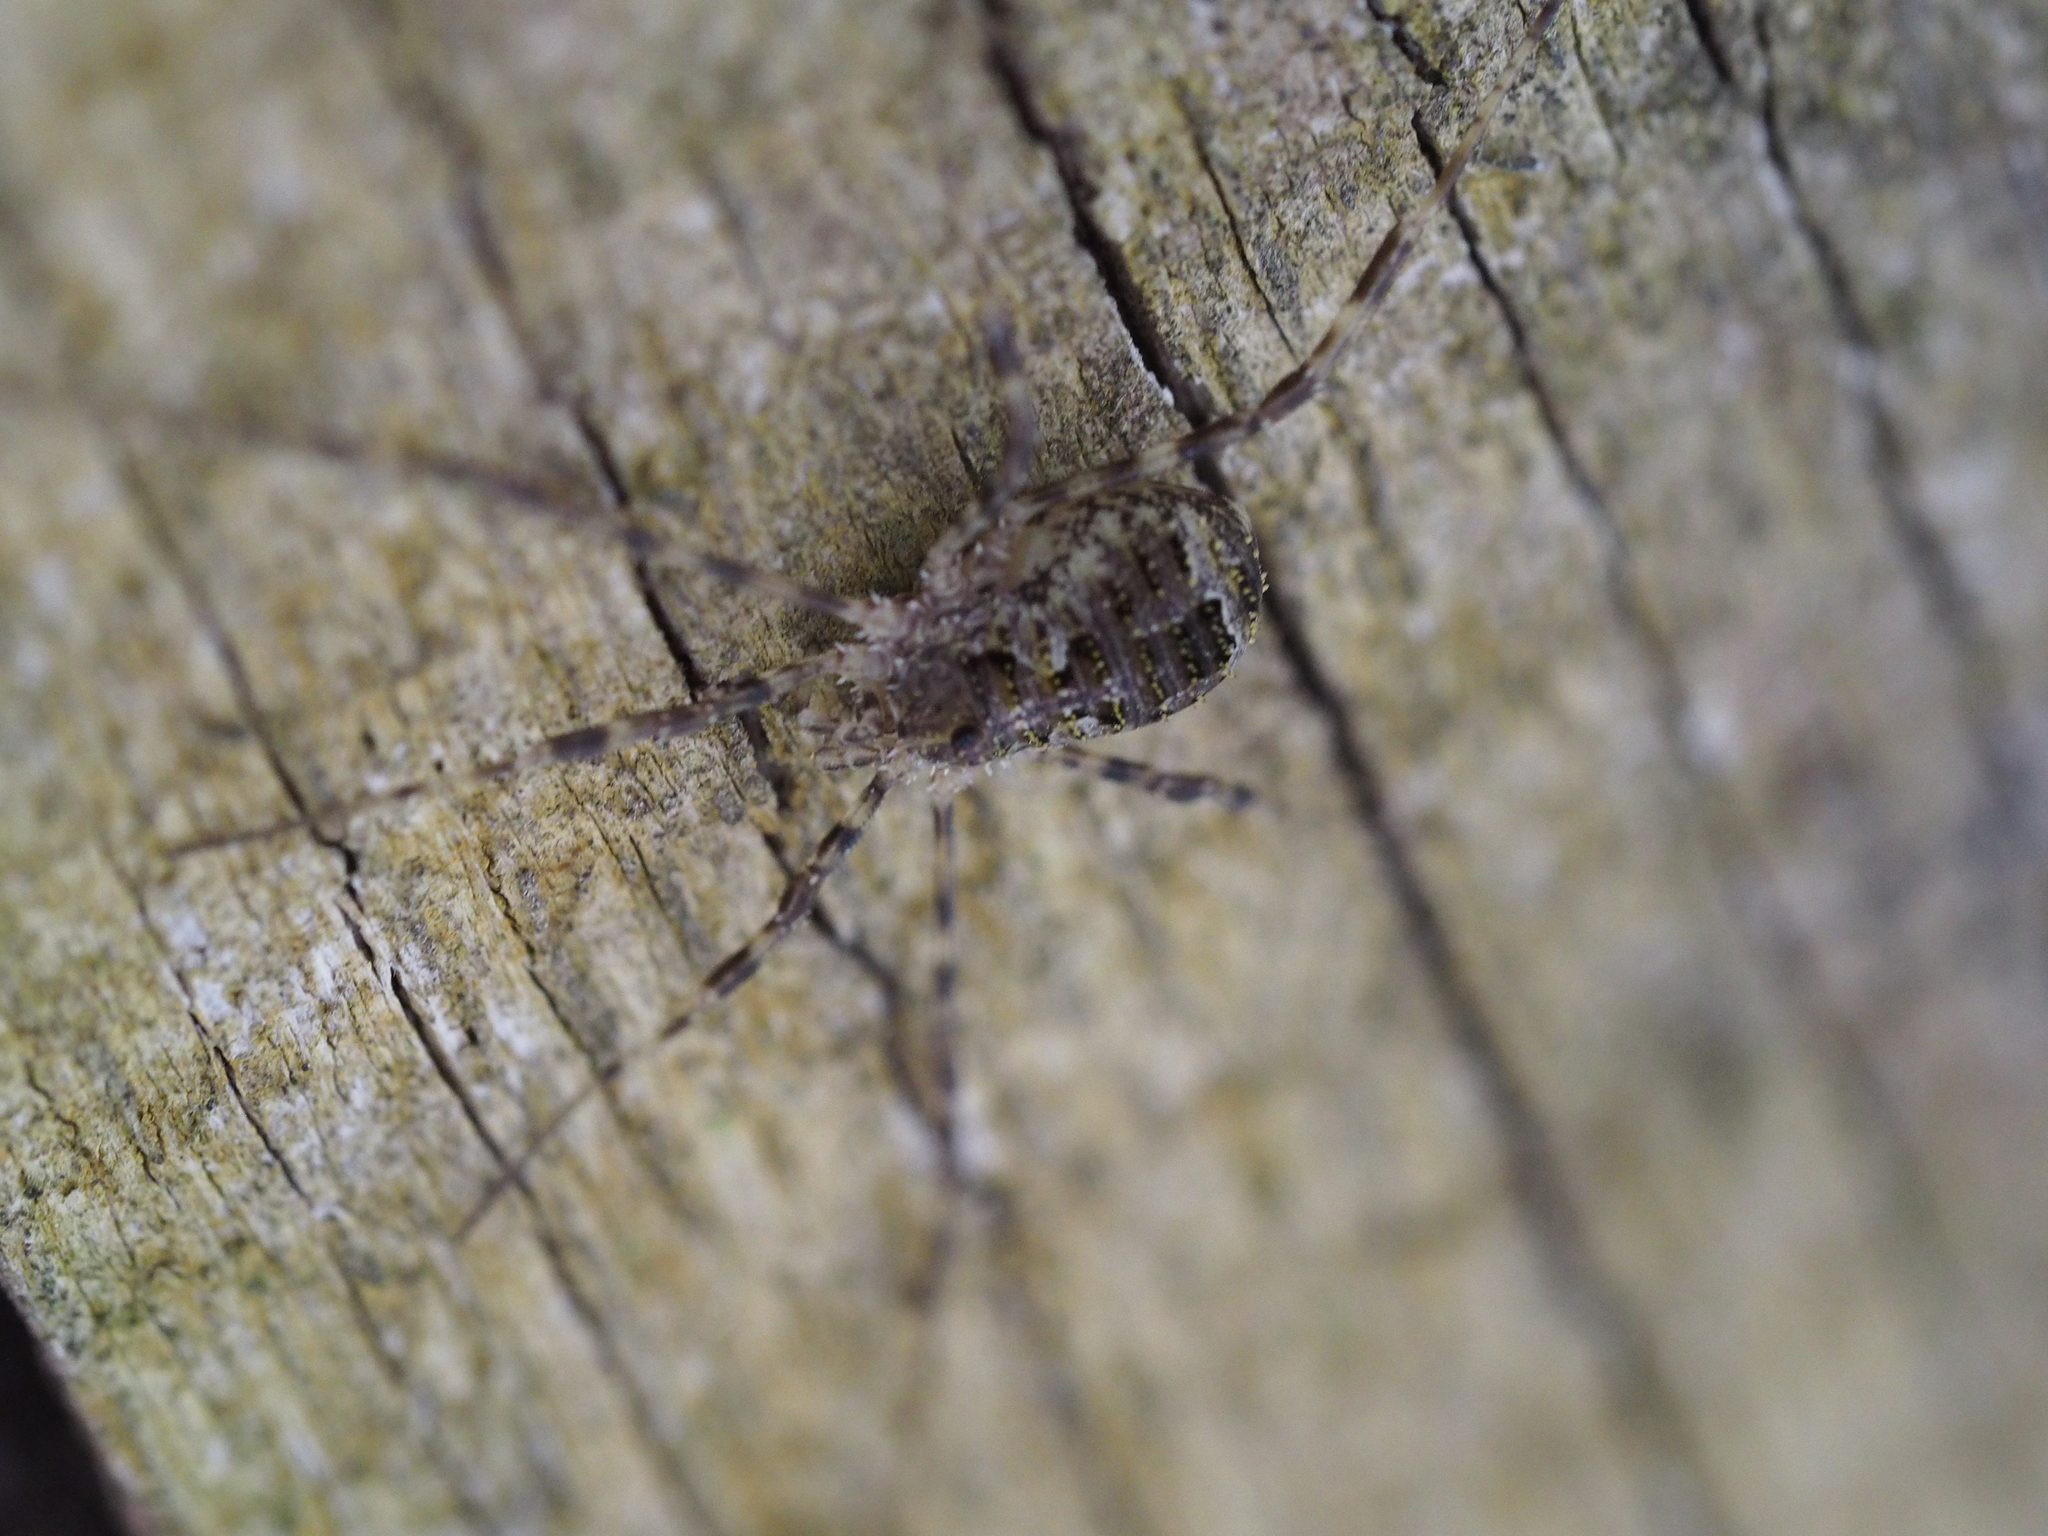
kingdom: Animalia
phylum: Arthropoda
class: Arachnida
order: Opiliones
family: Phalangiidae
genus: Lacinius
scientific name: Lacinius dentiger
